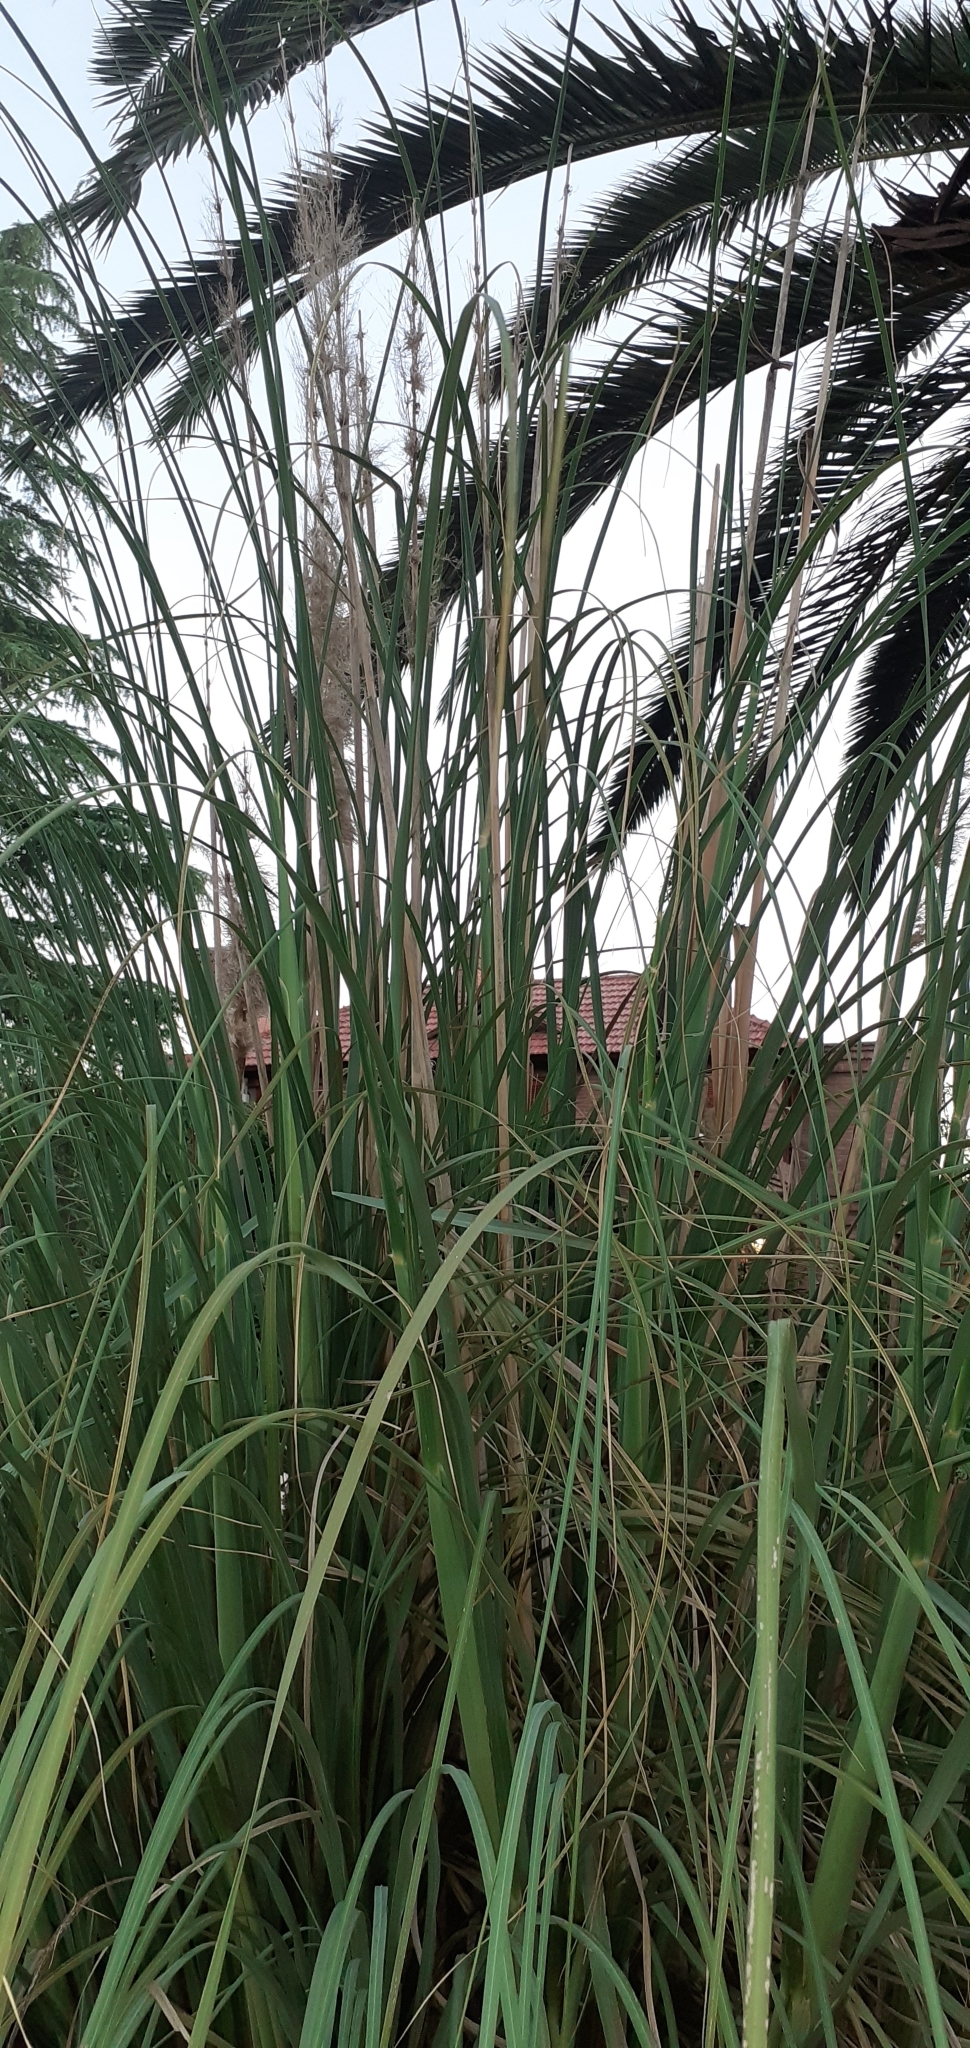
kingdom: Plantae
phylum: Tracheophyta
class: Liliopsida
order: Poales
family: Poaceae
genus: Cortaderia
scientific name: Cortaderia selloana
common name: Uruguayan pampas grass
